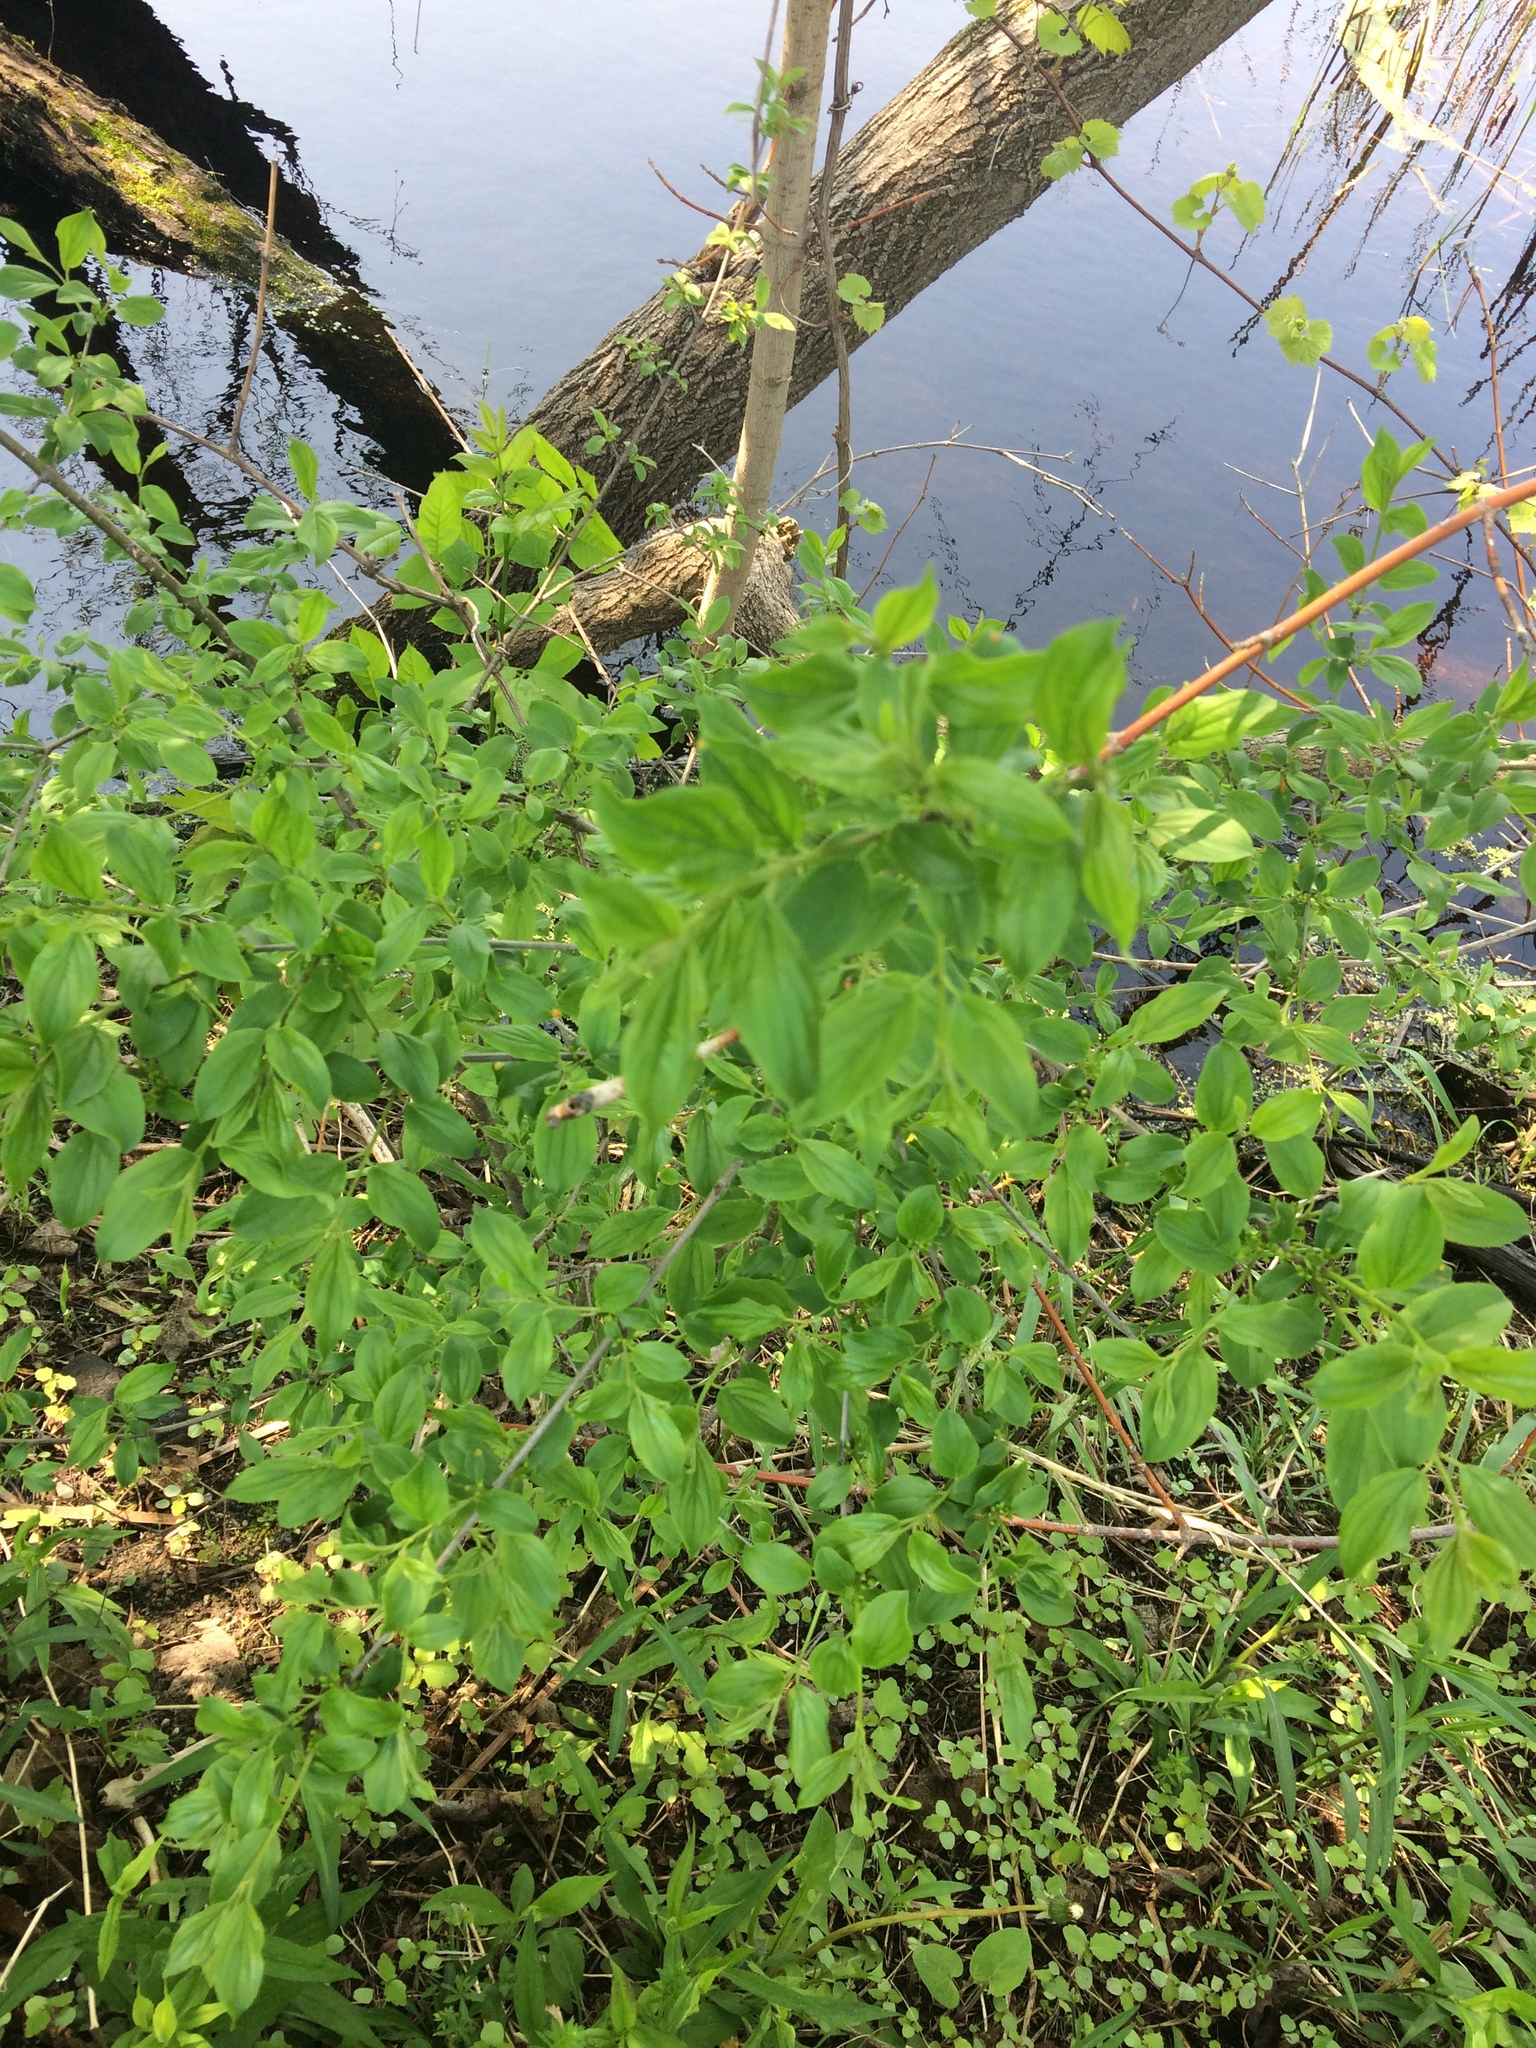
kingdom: Plantae
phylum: Tracheophyta
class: Magnoliopsida
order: Rosales
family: Rhamnaceae
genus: Rhamnus
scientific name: Rhamnus cathartica
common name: Common buckthorn
